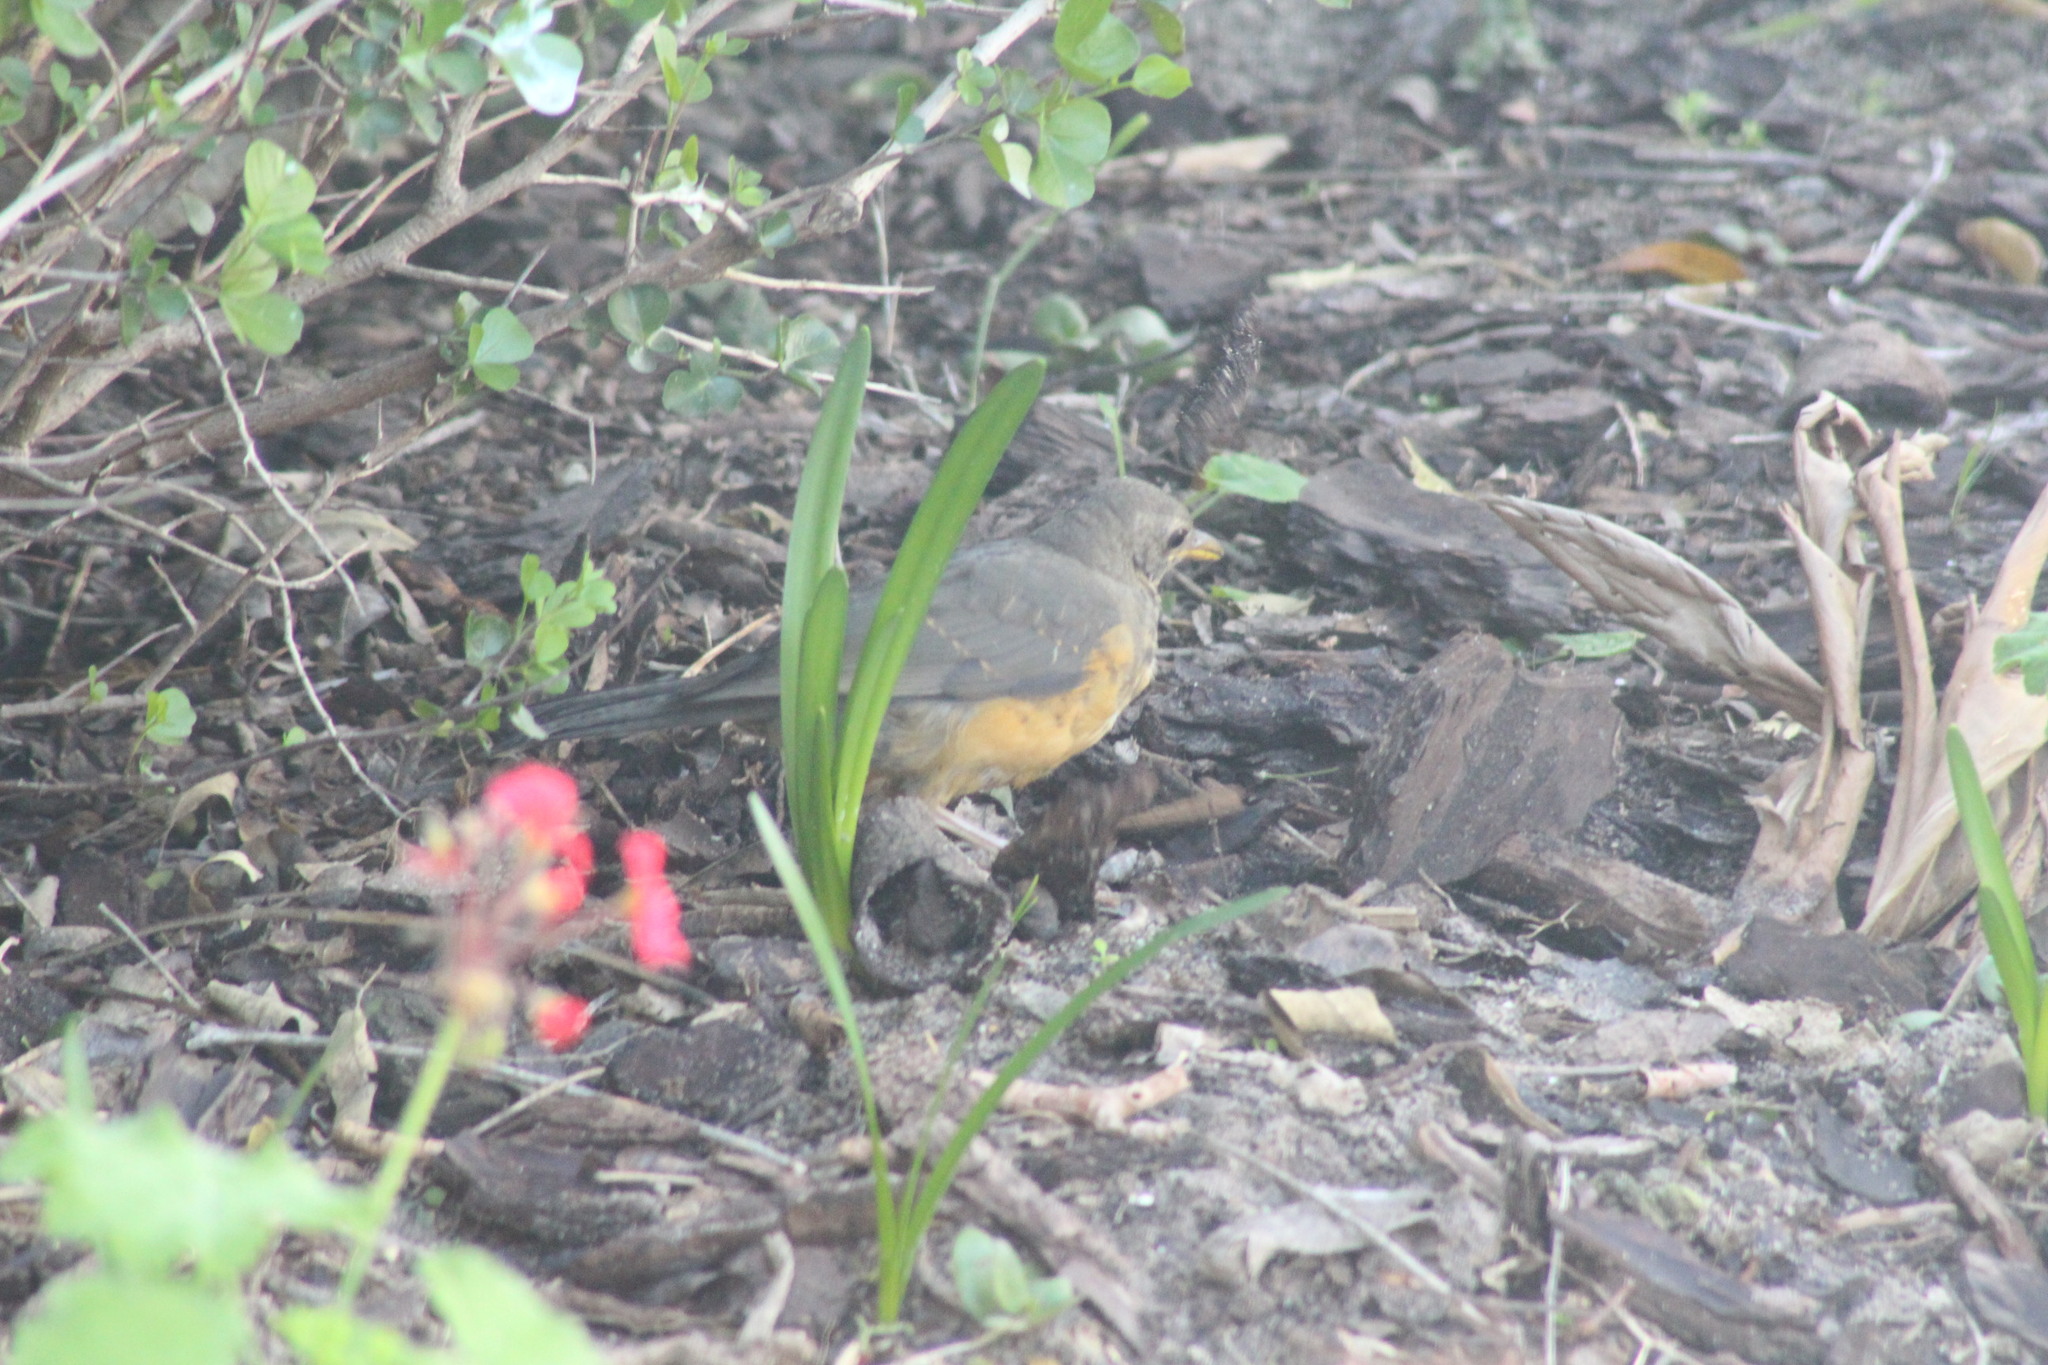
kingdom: Animalia
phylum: Chordata
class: Aves
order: Passeriformes
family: Turdidae
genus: Turdus
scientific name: Turdus olivaceus
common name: Olive thrush
